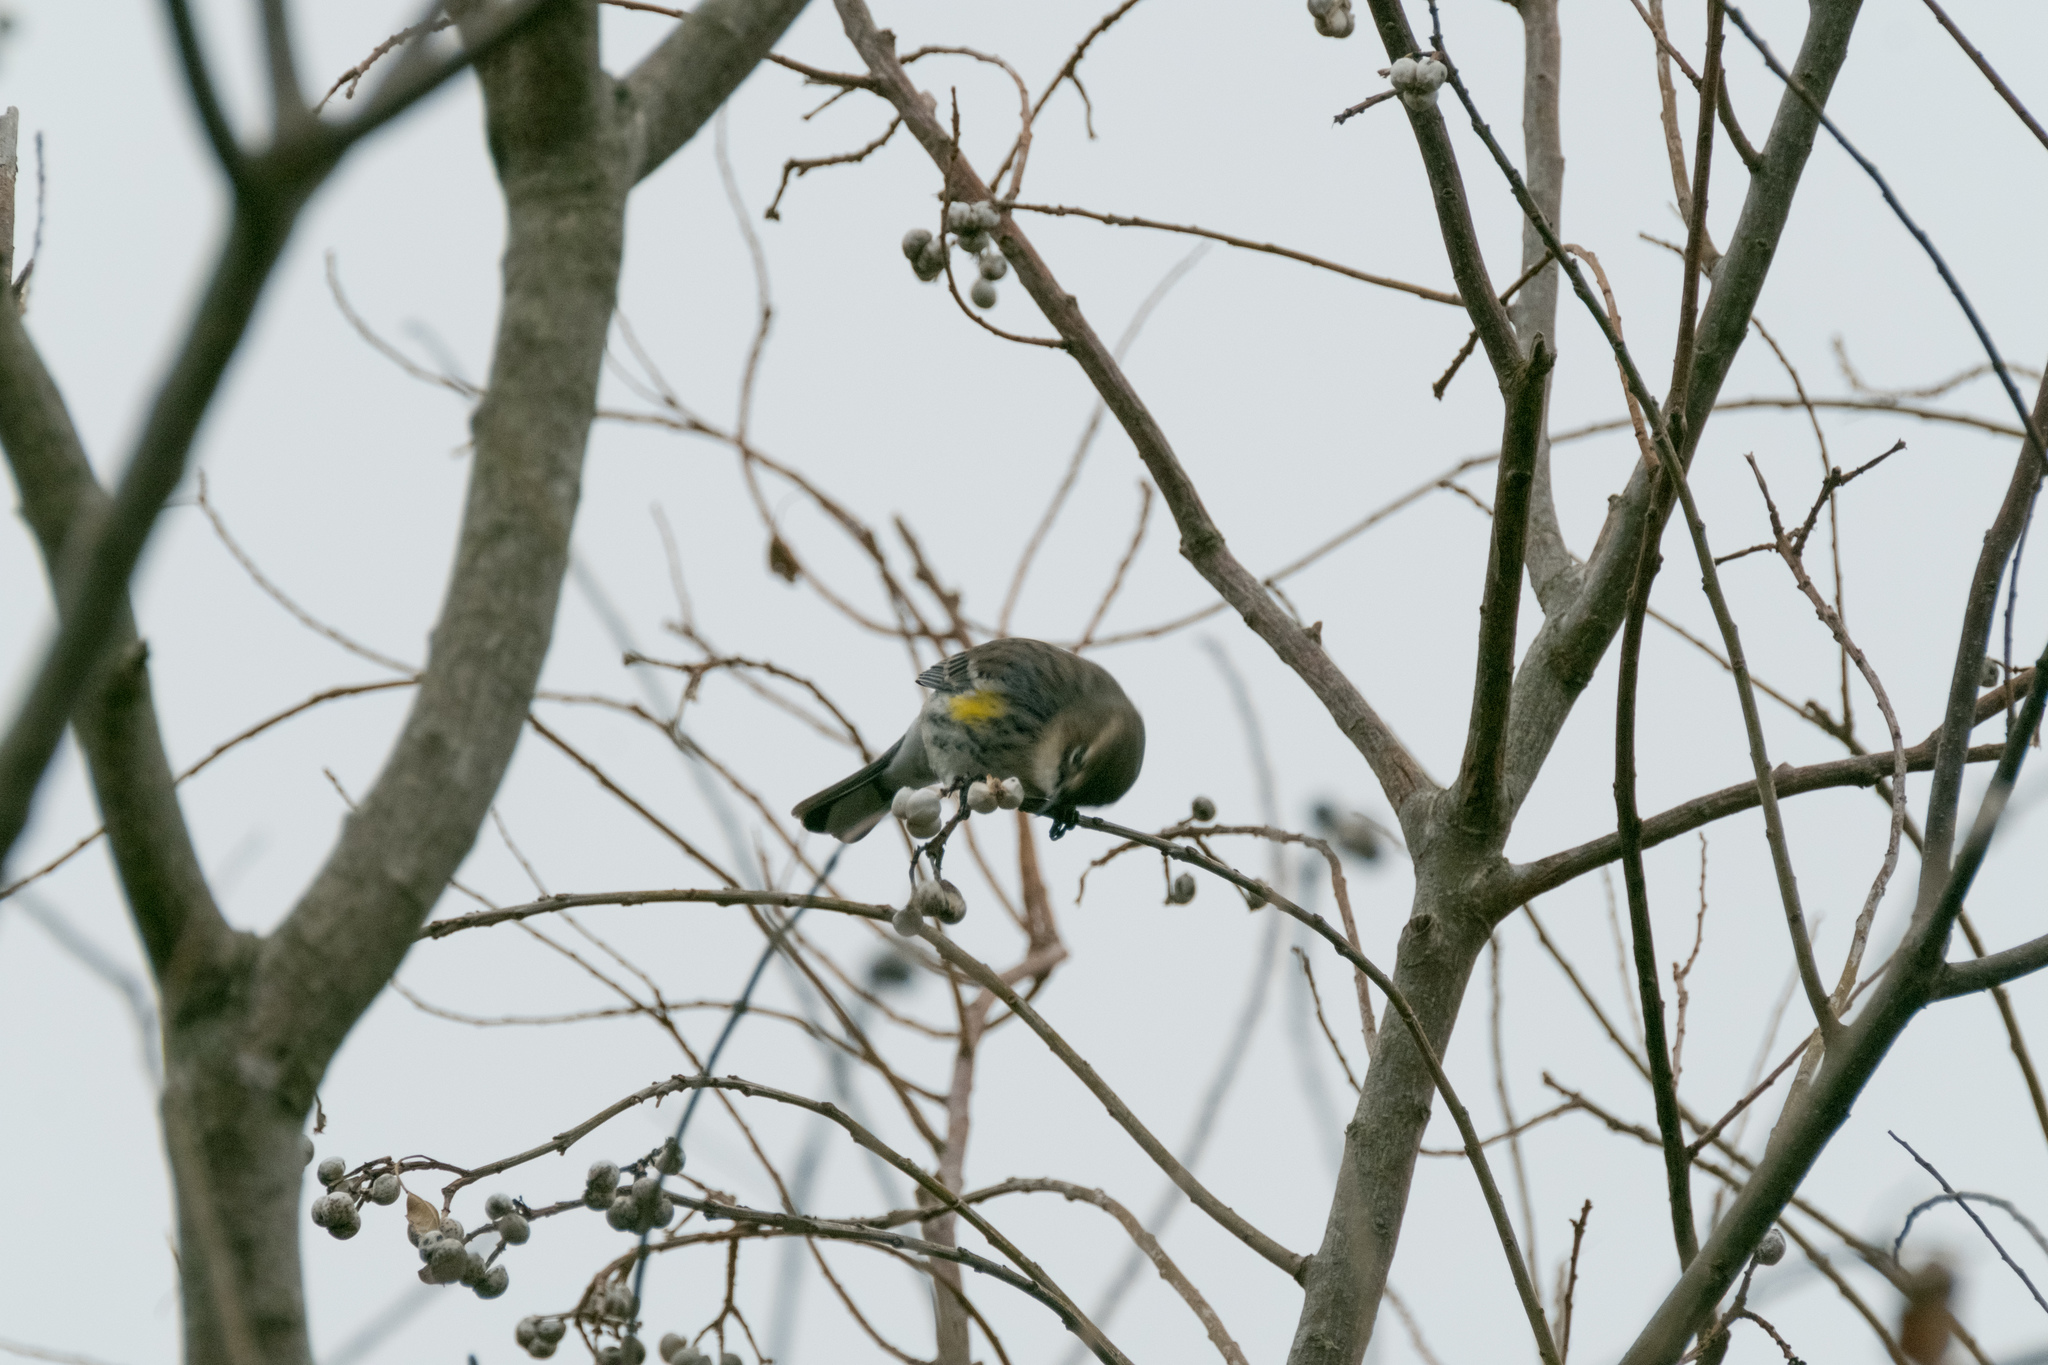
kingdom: Plantae
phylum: Tracheophyta
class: Magnoliopsida
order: Malpighiales
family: Euphorbiaceae
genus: Triadica
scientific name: Triadica sebifera
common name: Chinese tallow
